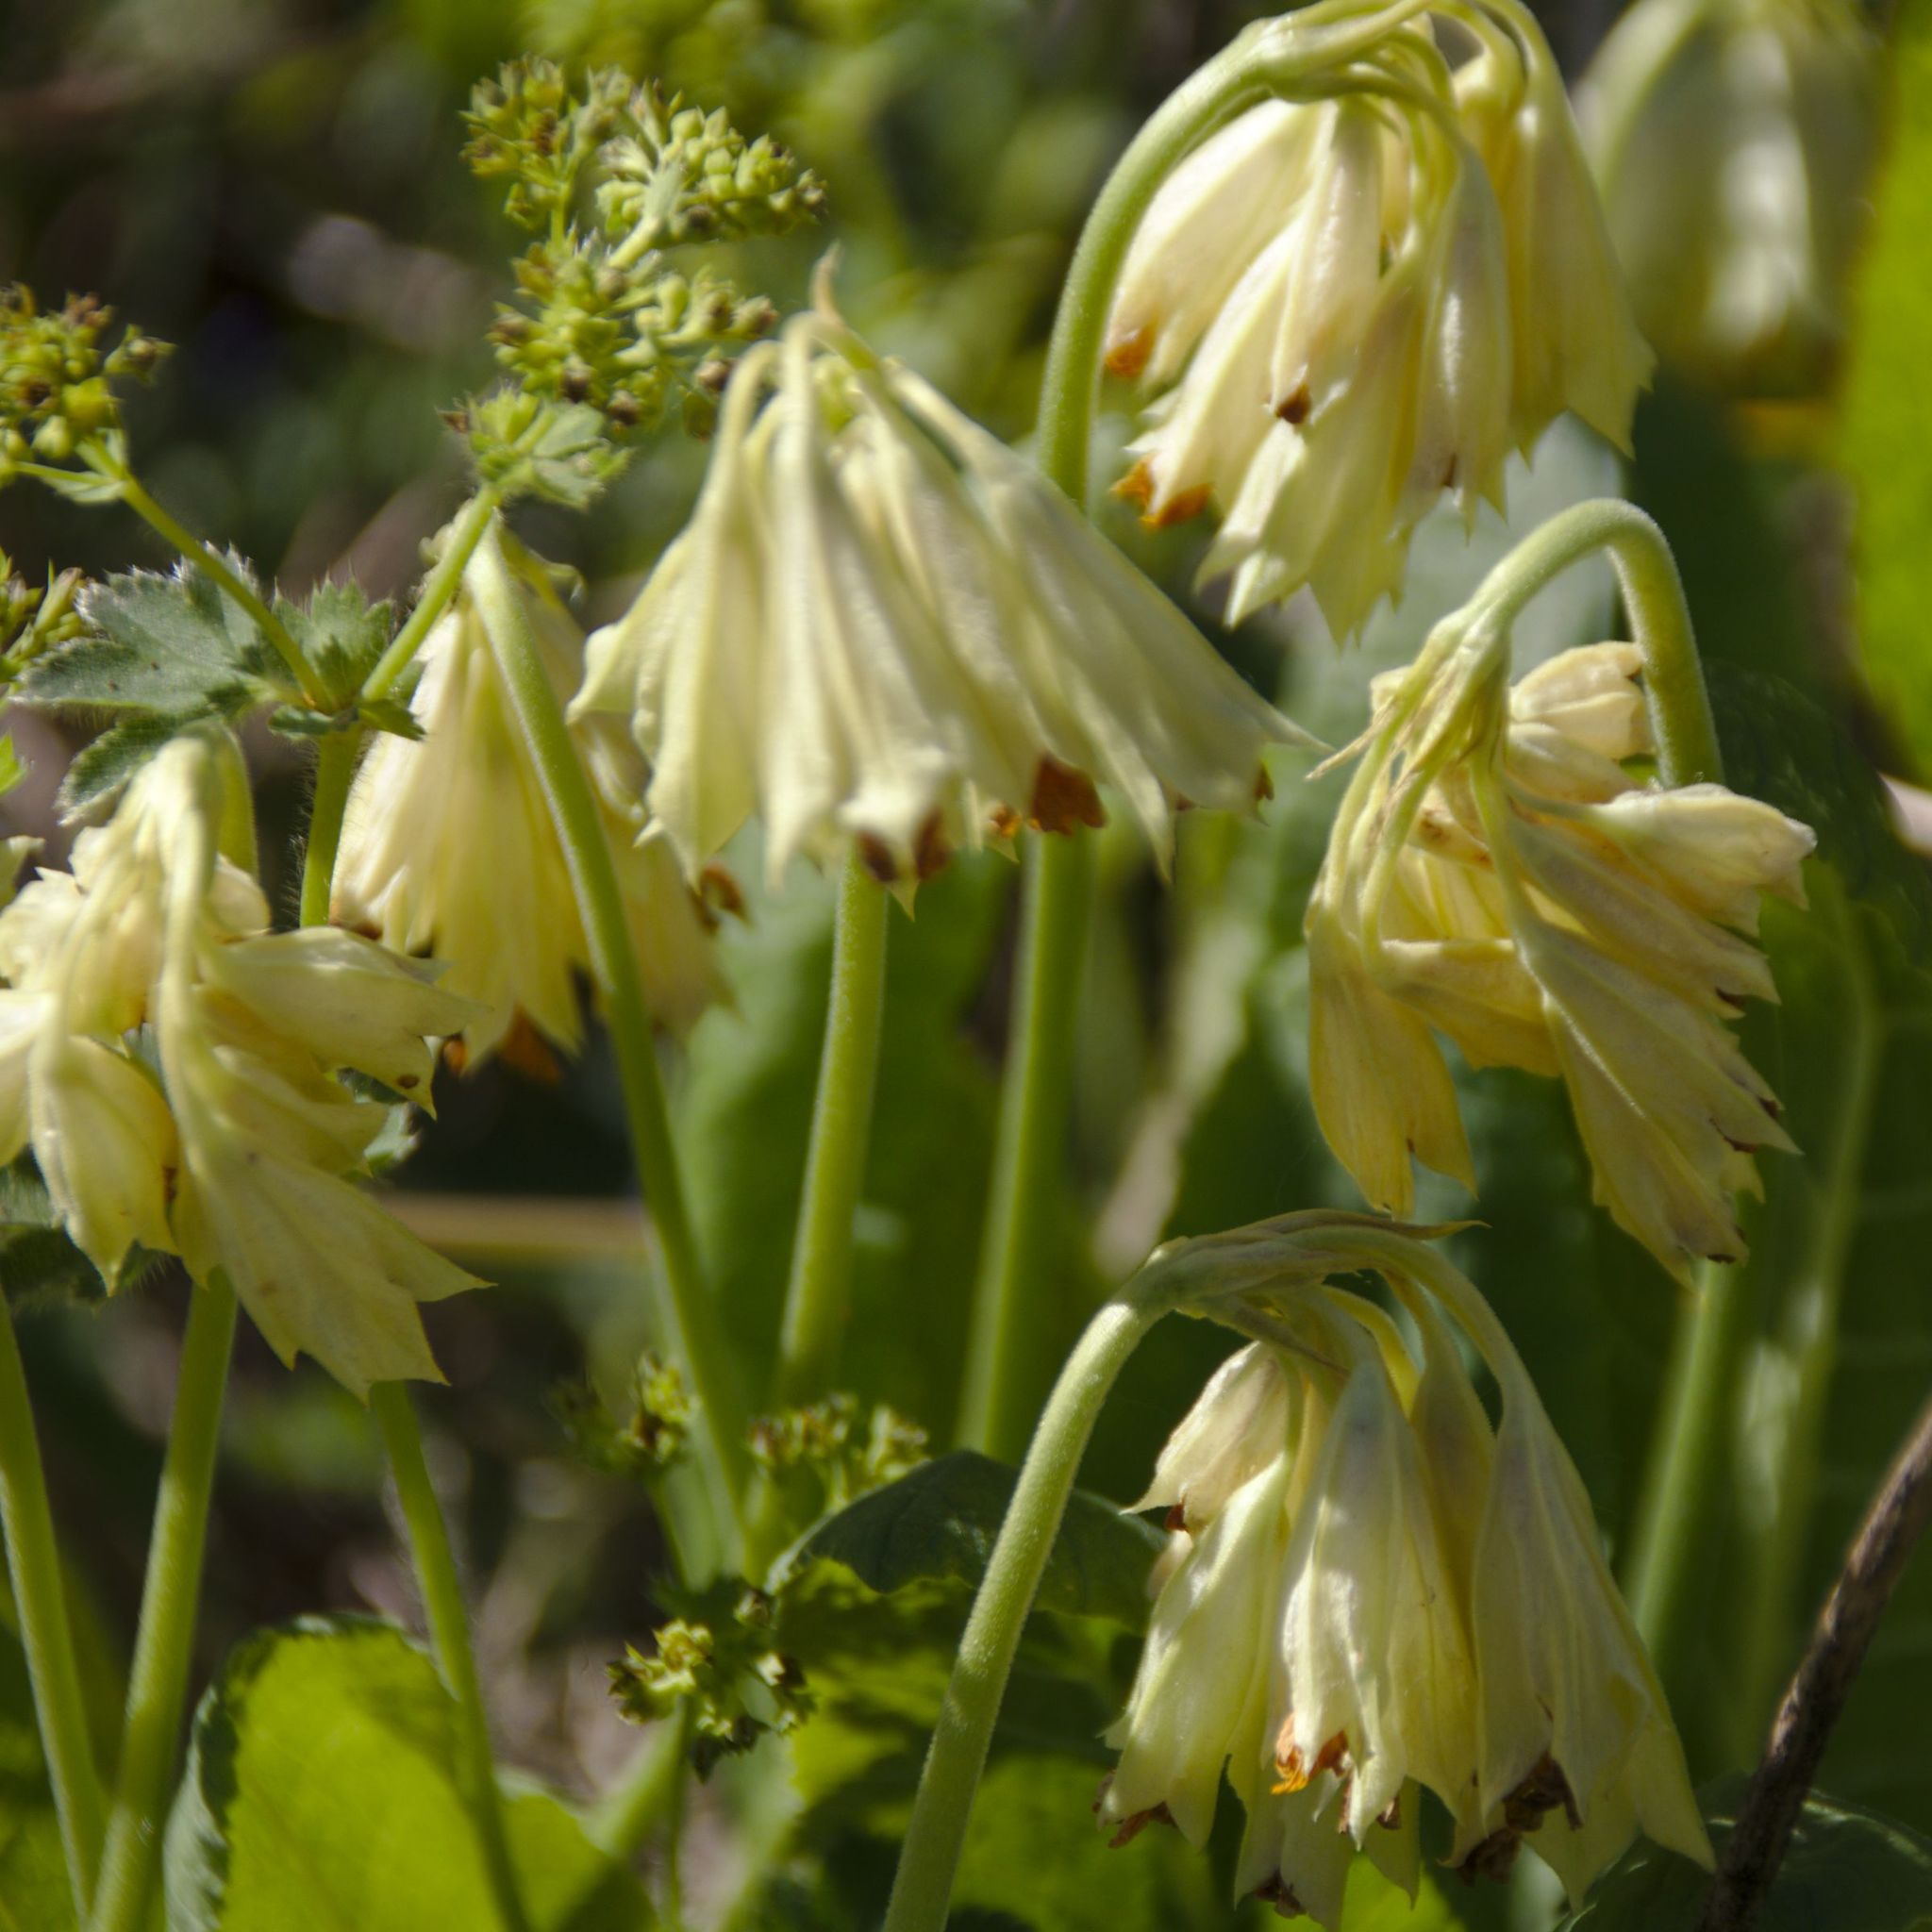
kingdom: Plantae
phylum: Tracheophyta
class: Magnoliopsida
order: Ericales
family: Primulaceae
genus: Primula
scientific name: Primula veris
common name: Cowslip
